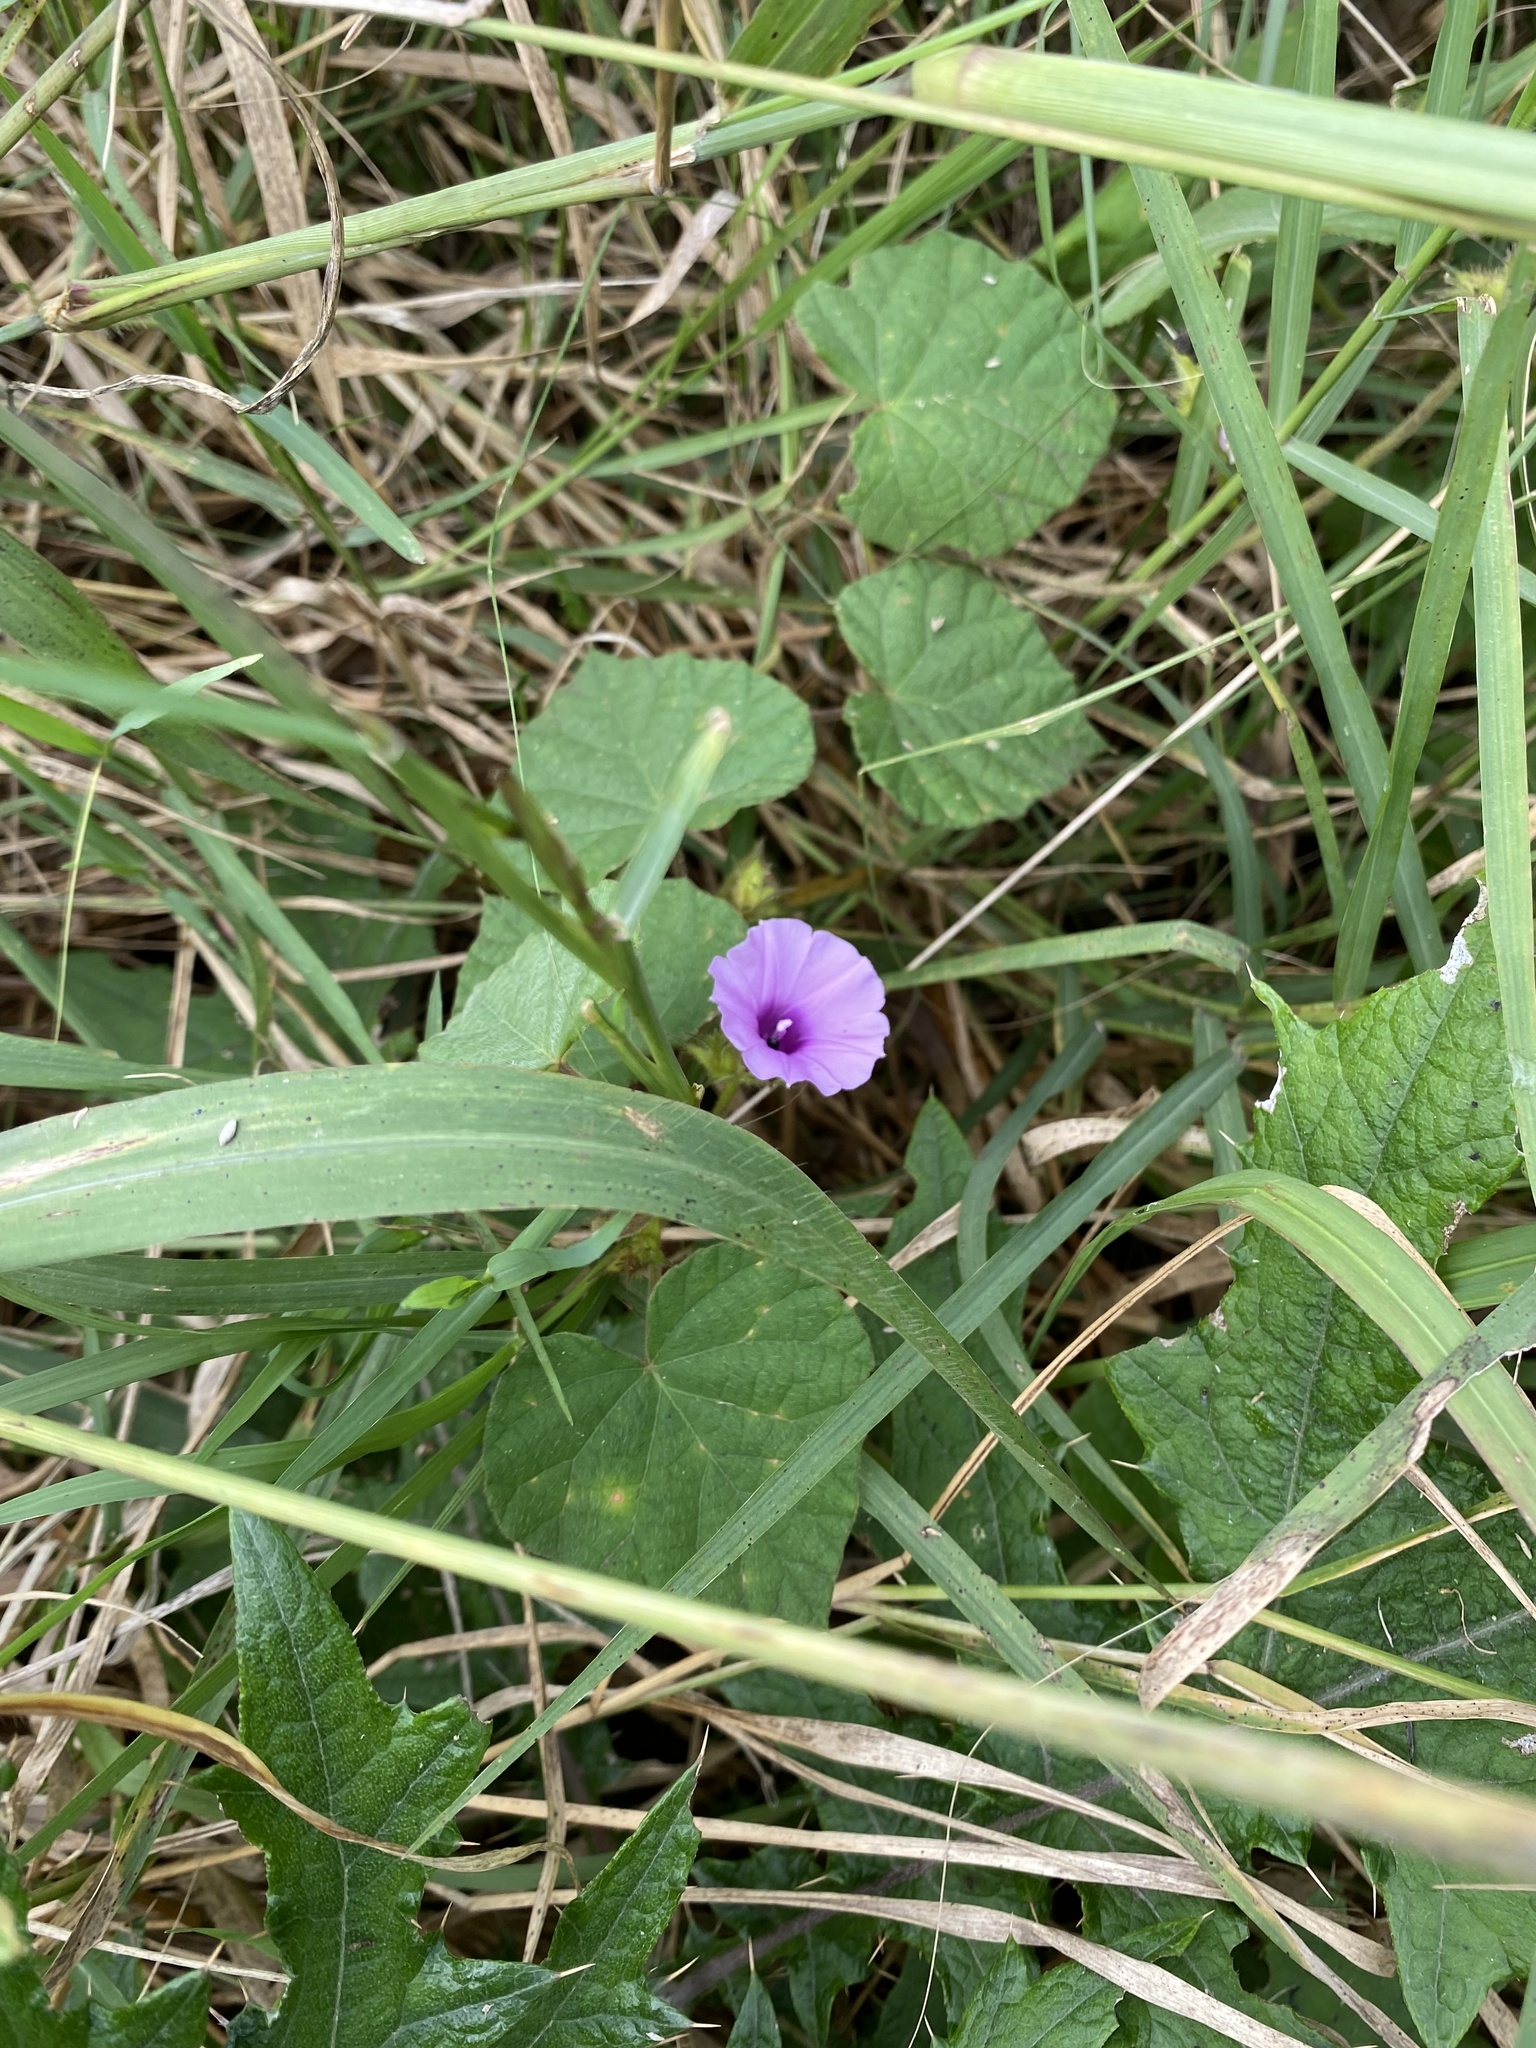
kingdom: Plantae
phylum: Tracheophyta
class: Magnoliopsida
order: Solanales
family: Convolvulaceae
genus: Ipomoea
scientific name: Ipomoea wightii
